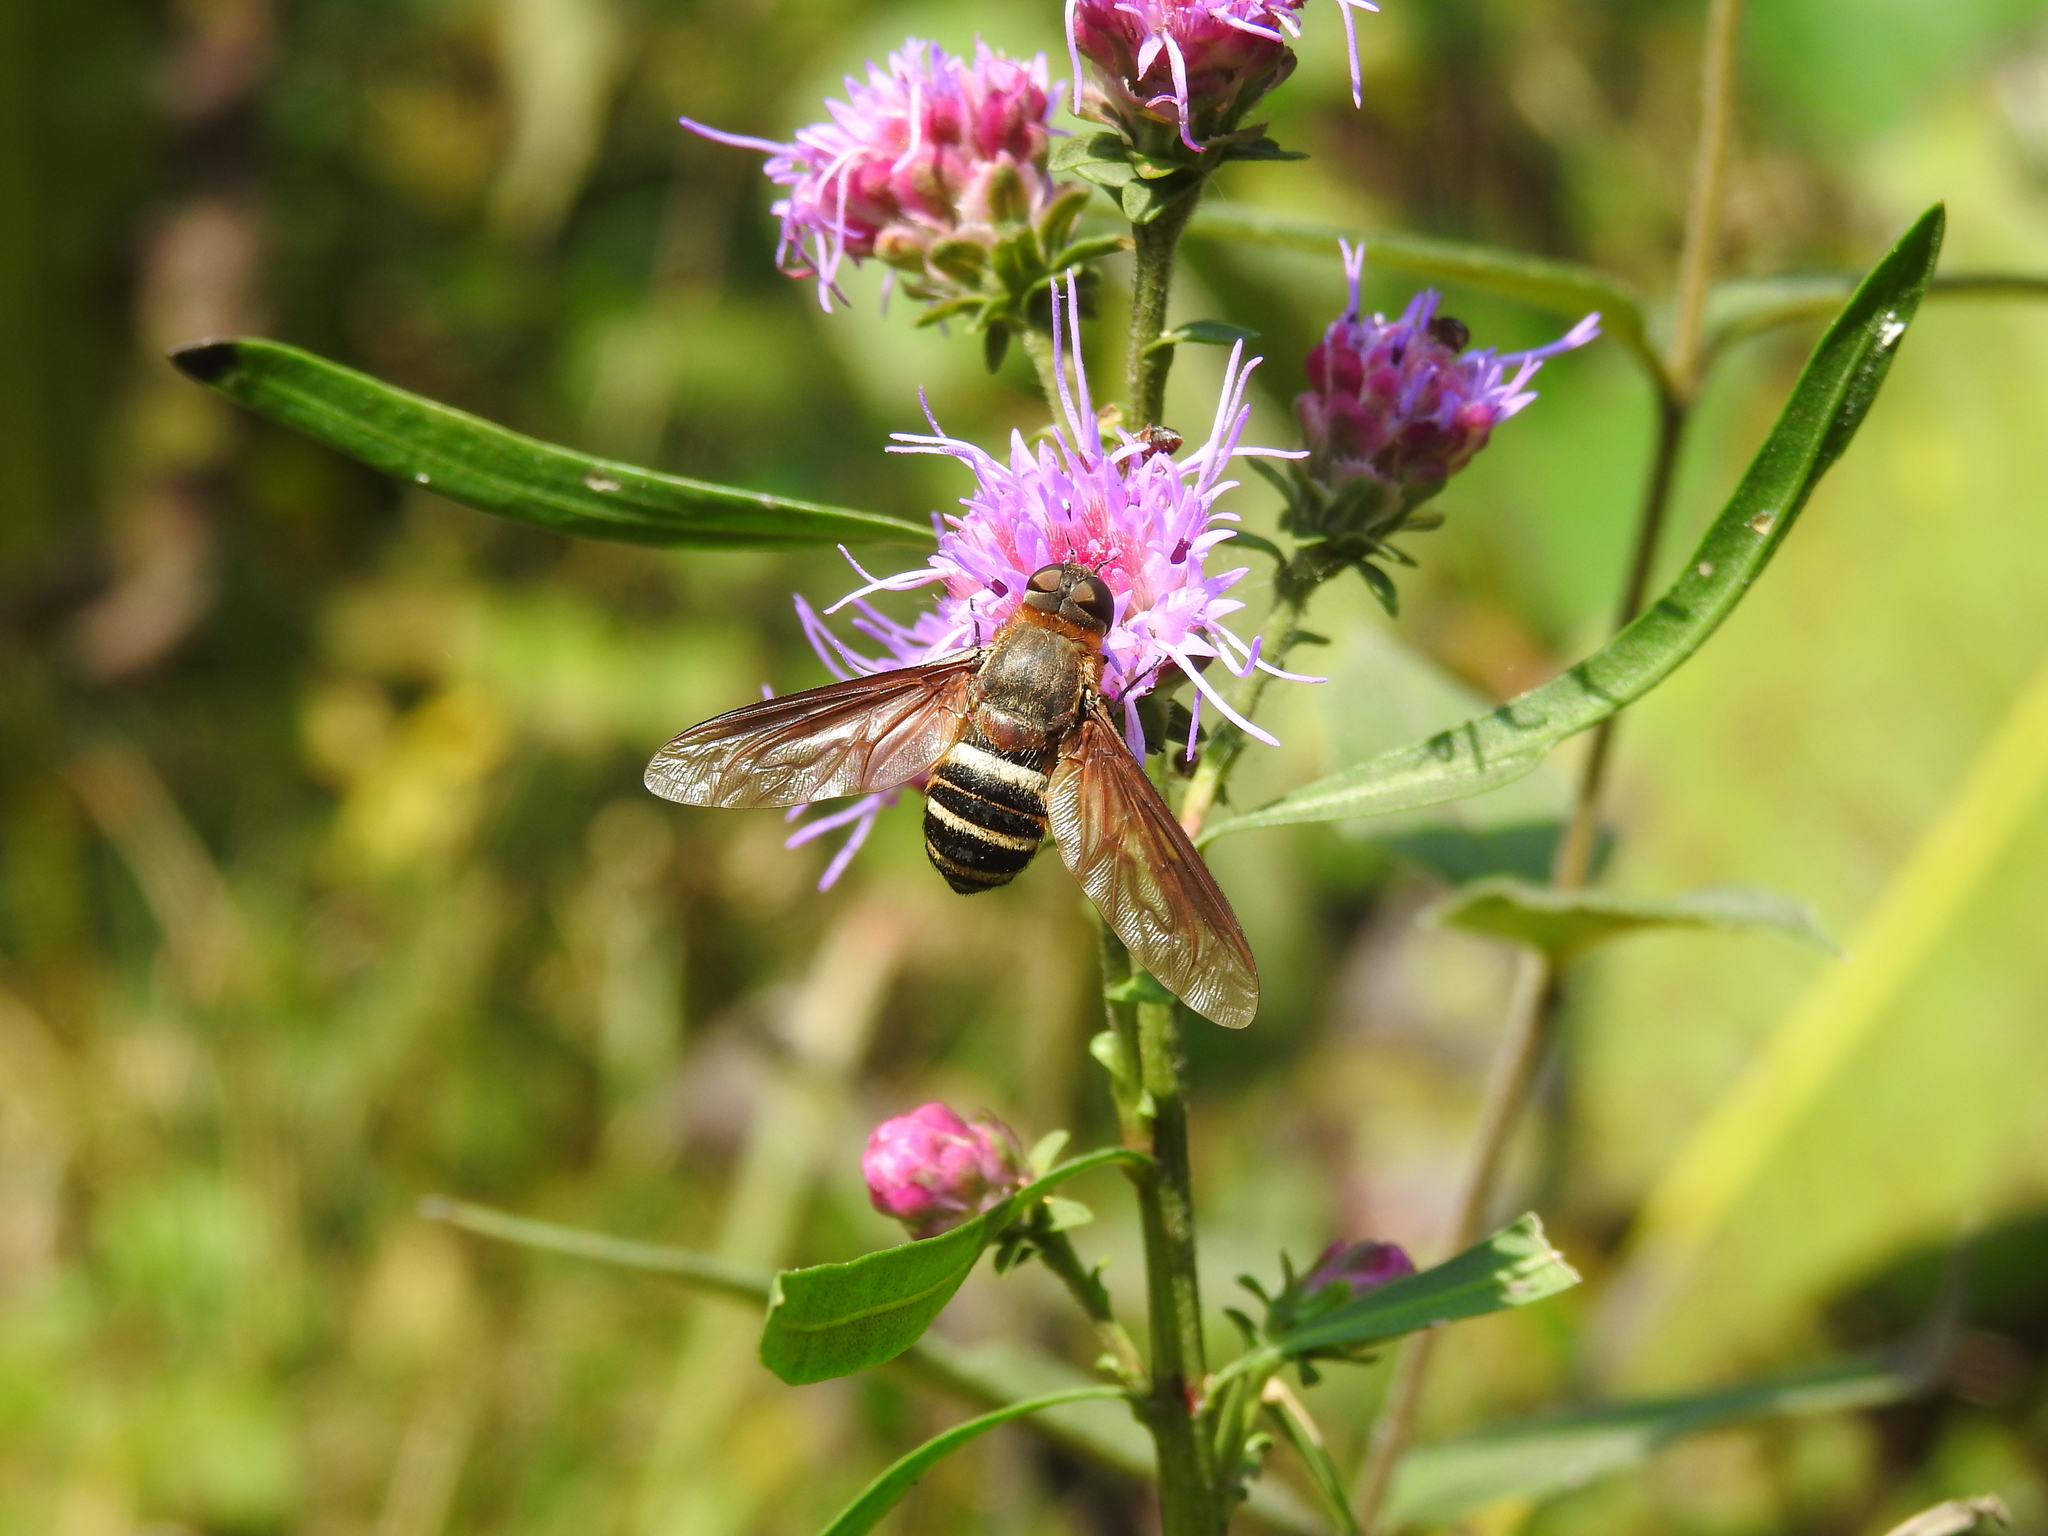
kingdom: Animalia
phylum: Arthropoda
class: Insecta
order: Diptera
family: Bombyliidae
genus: Exoprosopa
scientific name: Exoprosopa fasciata
